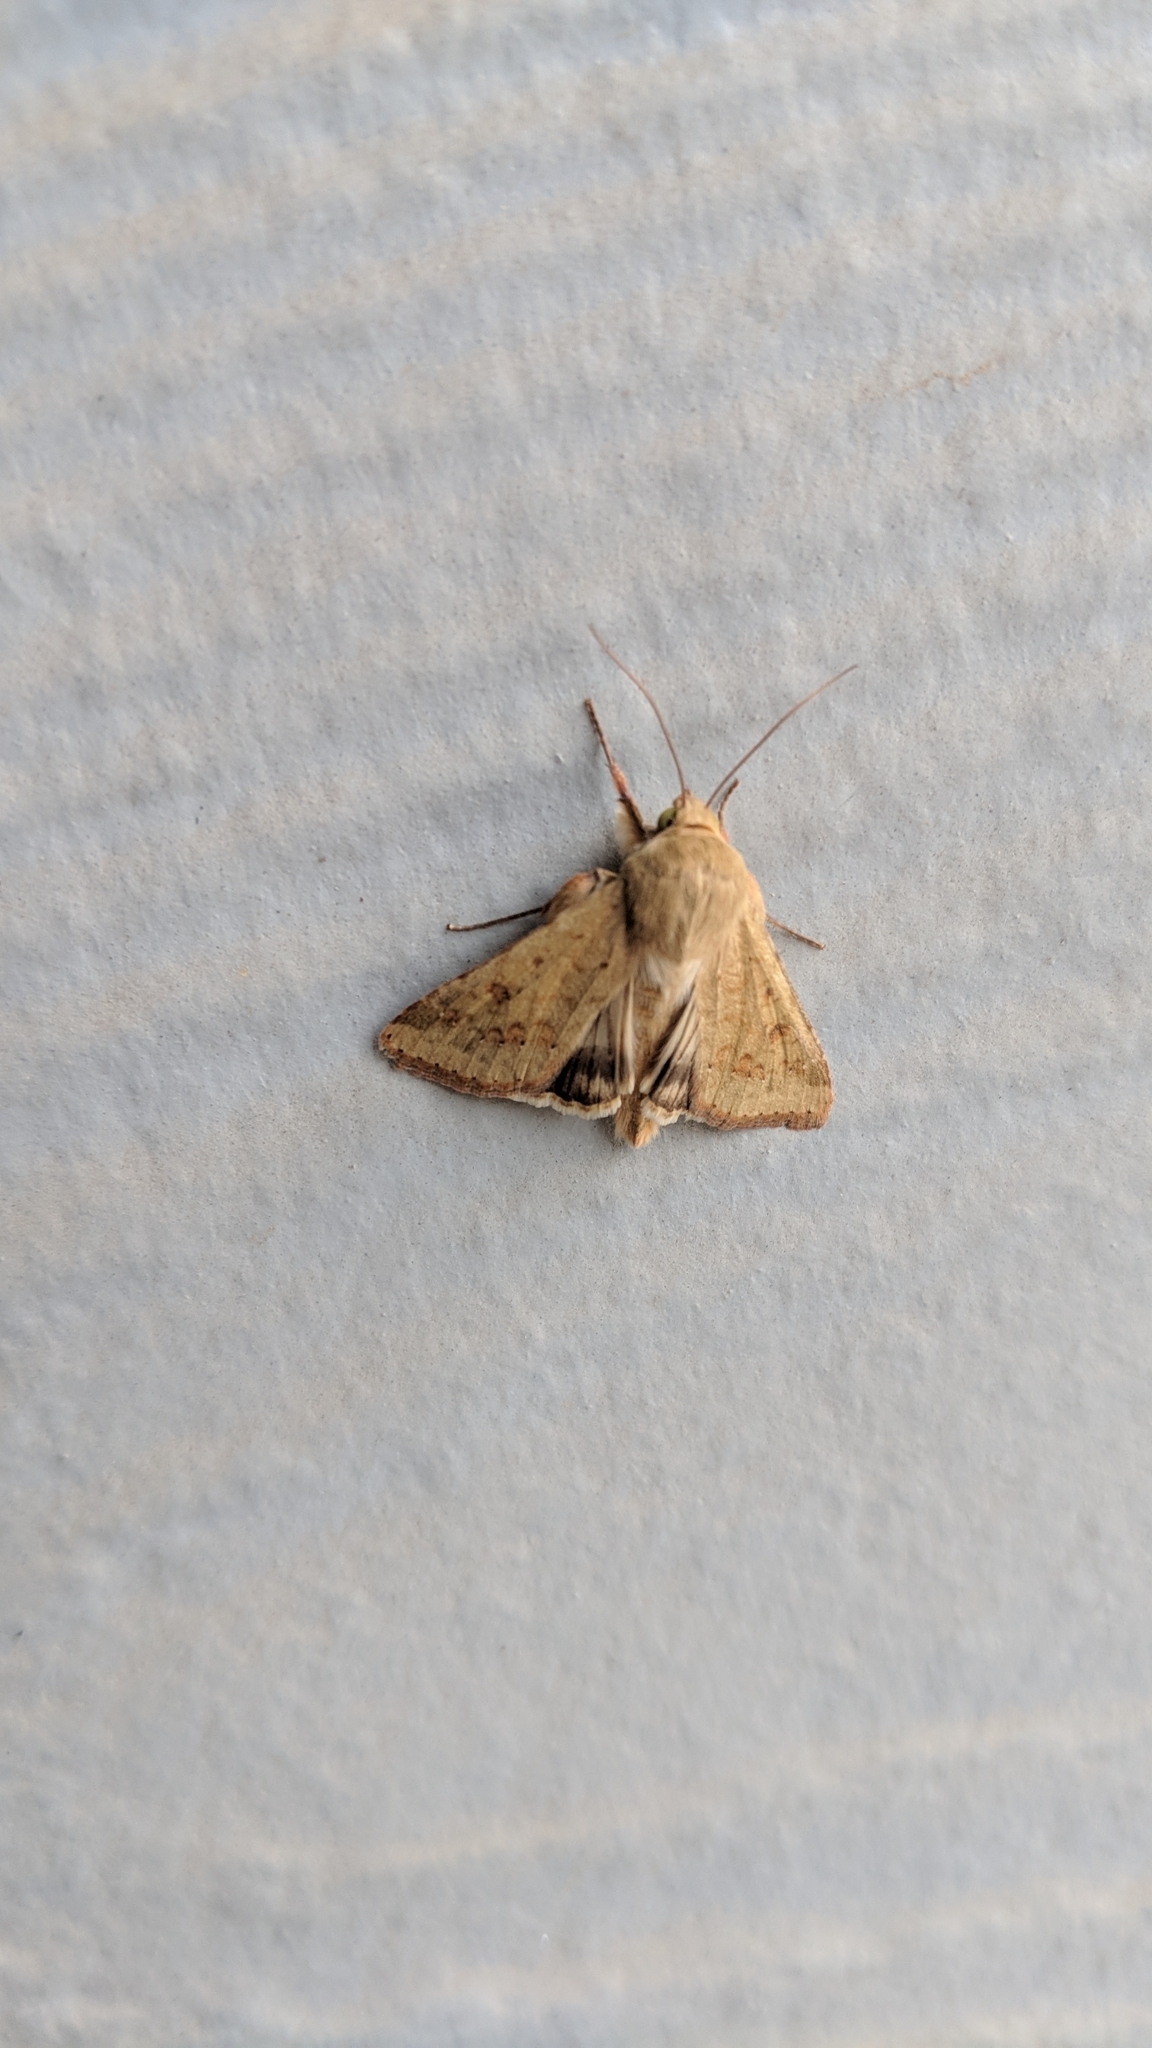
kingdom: Animalia
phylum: Arthropoda
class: Insecta
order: Lepidoptera
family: Noctuidae
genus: Helicoverpa
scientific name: Helicoverpa zea
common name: Bollworm
